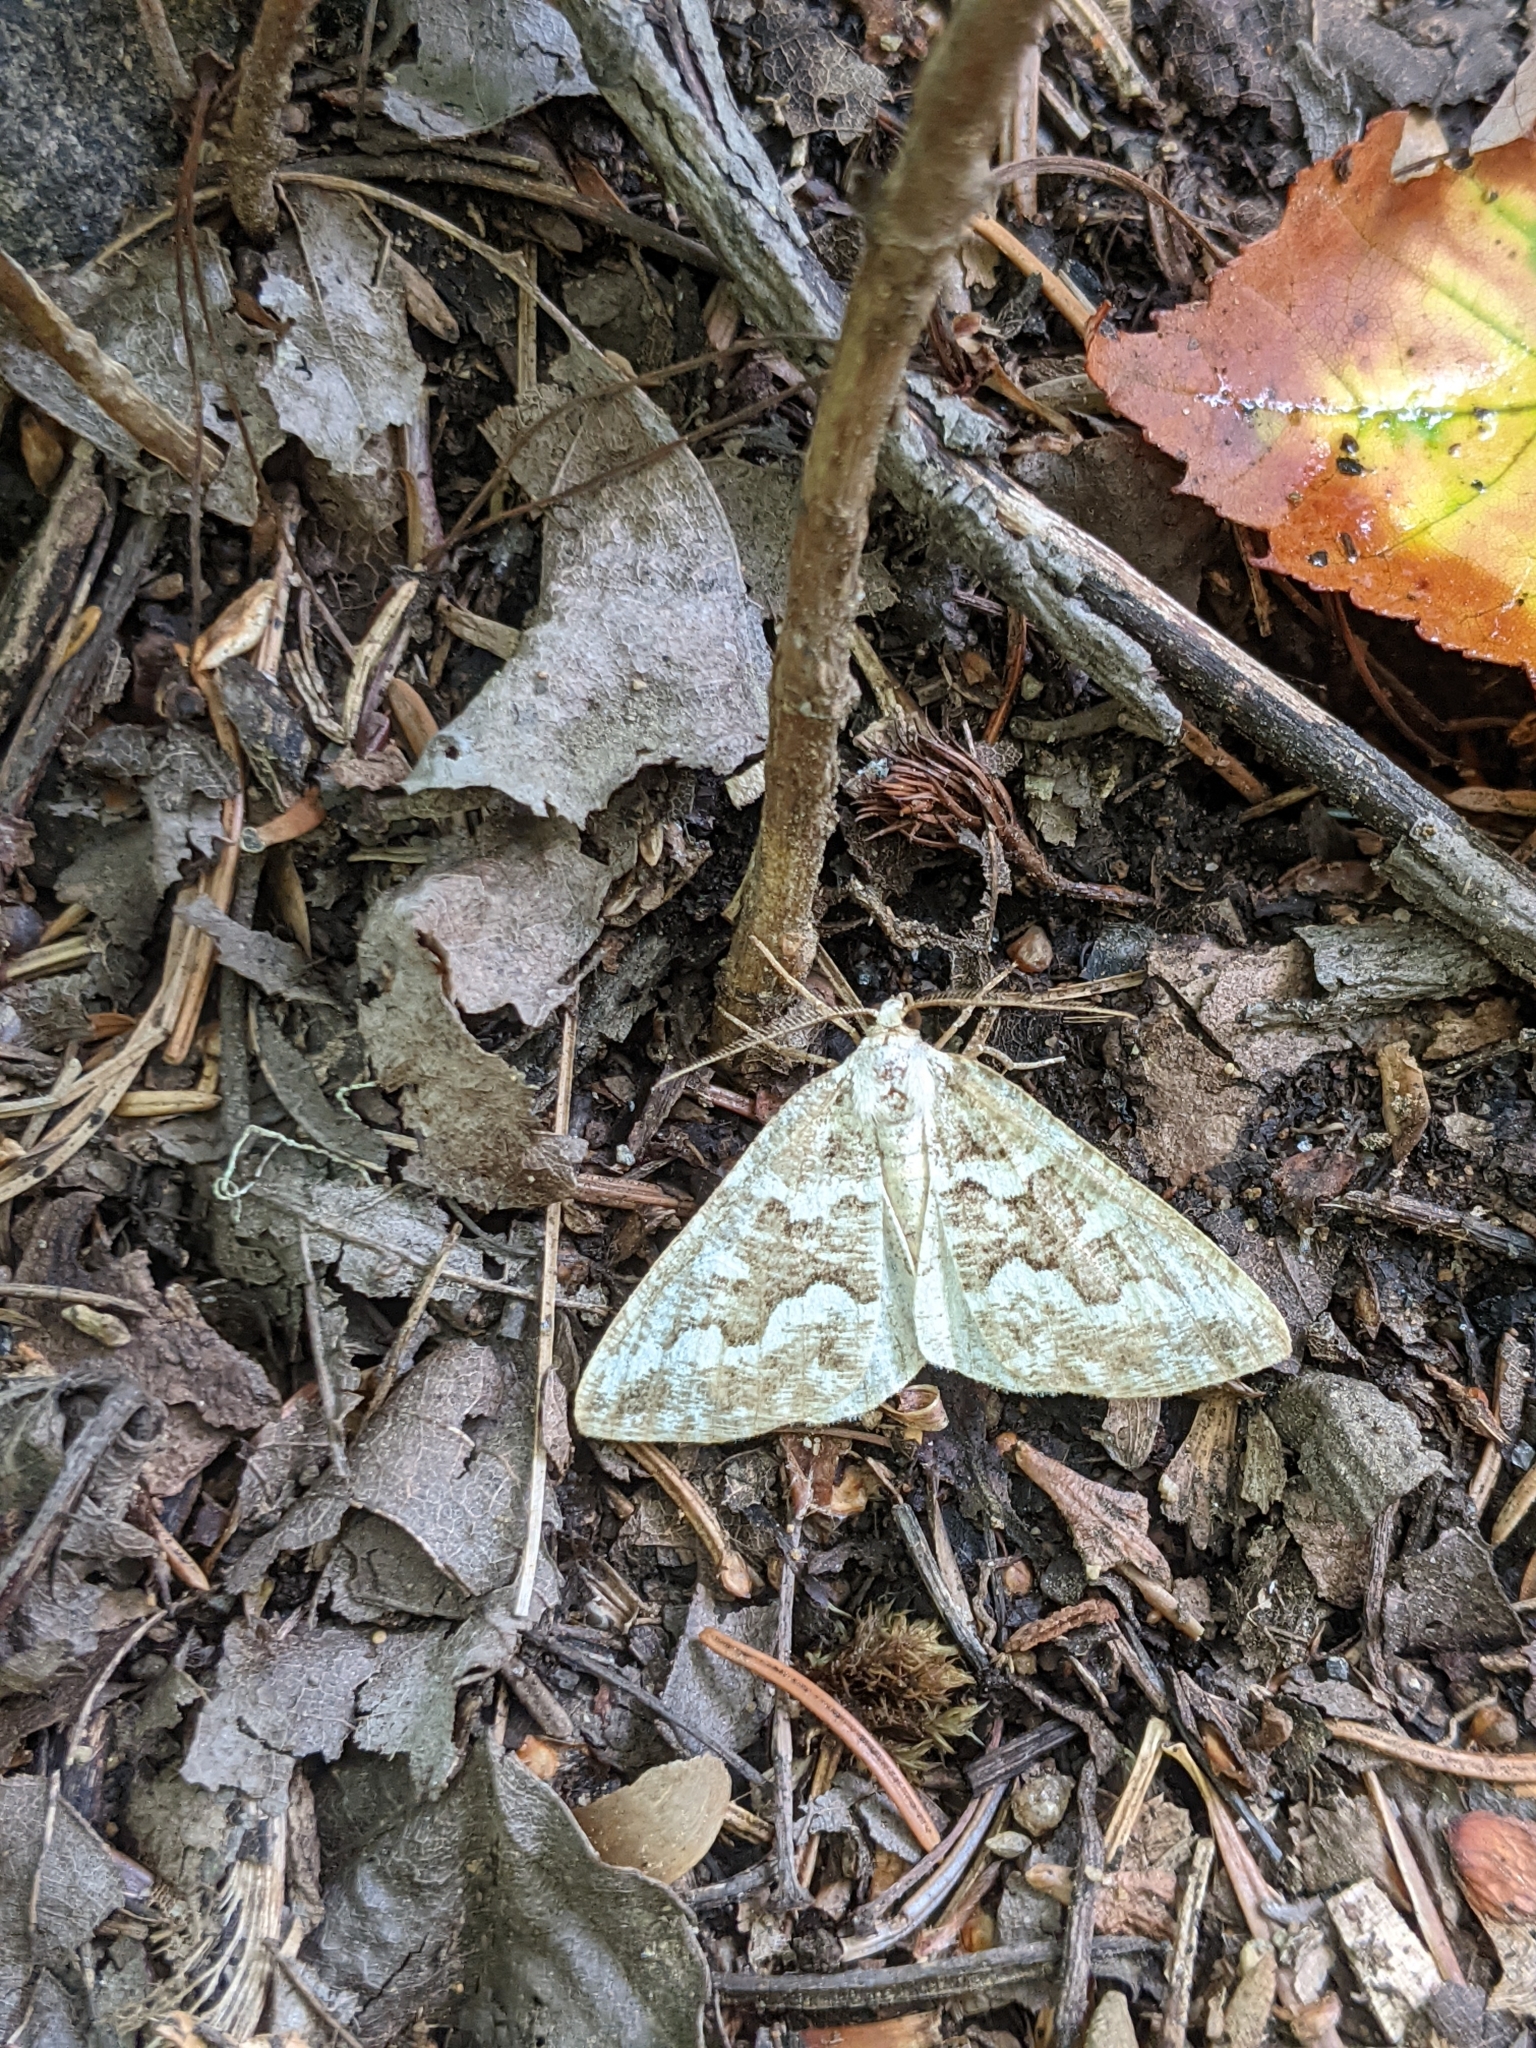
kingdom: Animalia
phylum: Arthropoda
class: Insecta
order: Lepidoptera
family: Geometridae
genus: Caripeta
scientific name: Caripeta divisata
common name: Gray spruce looper
